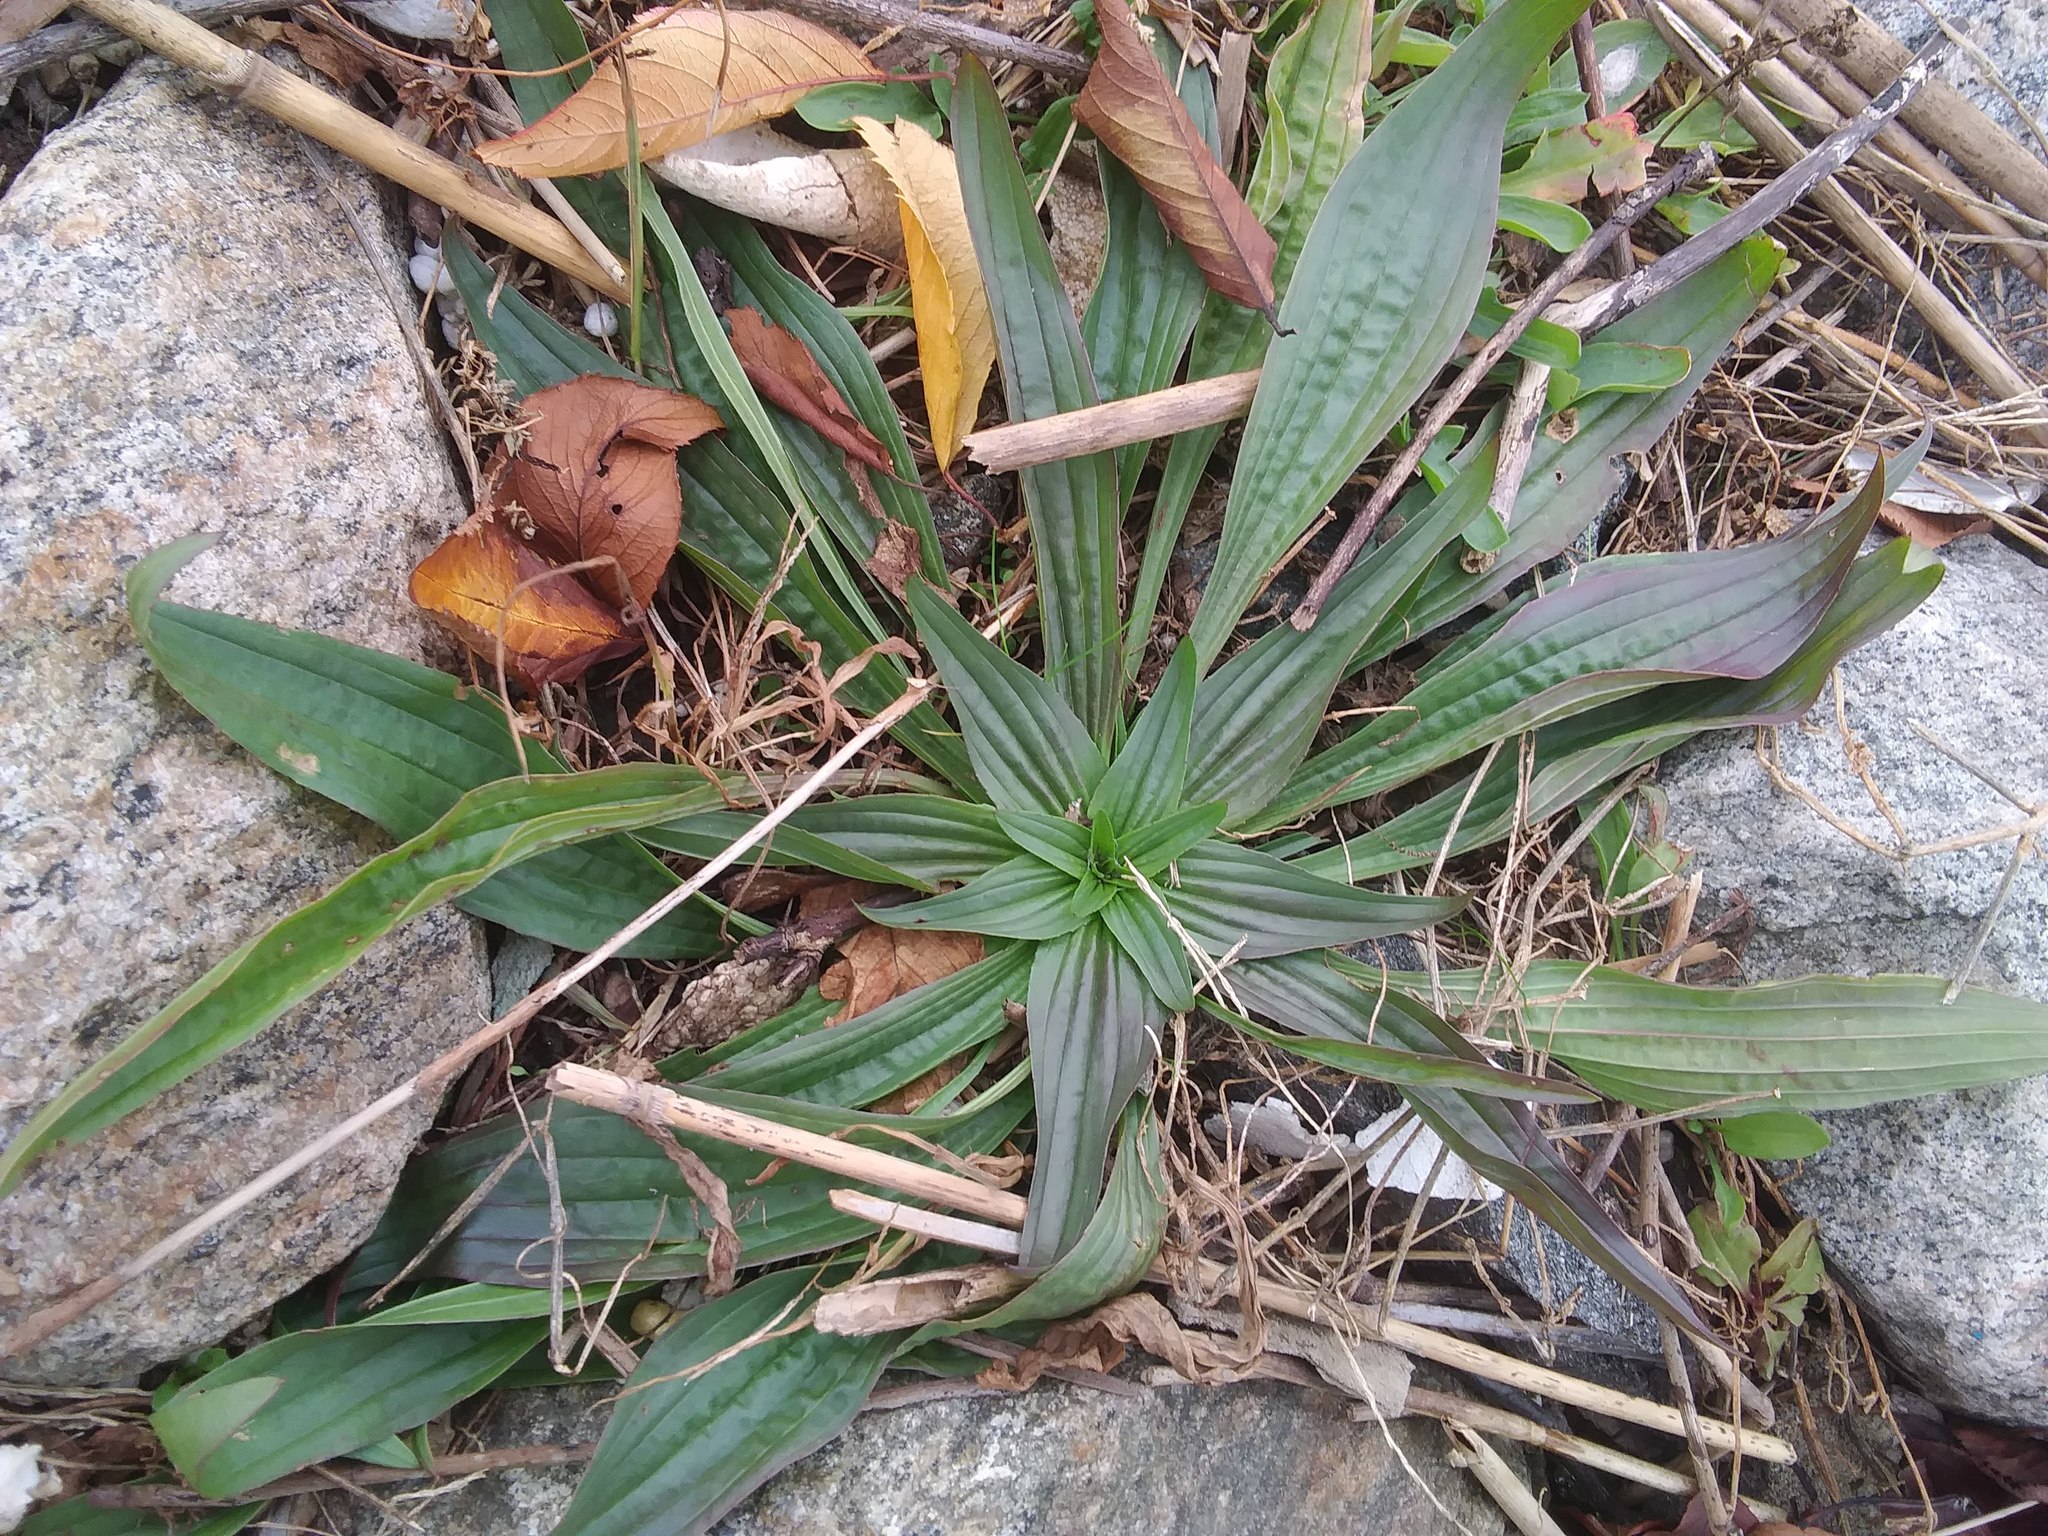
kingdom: Plantae
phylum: Tracheophyta
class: Magnoliopsida
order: Lamiales
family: Plantaginaceae
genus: Plantago
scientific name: Plantago lanceolata
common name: Ribwort plantain
